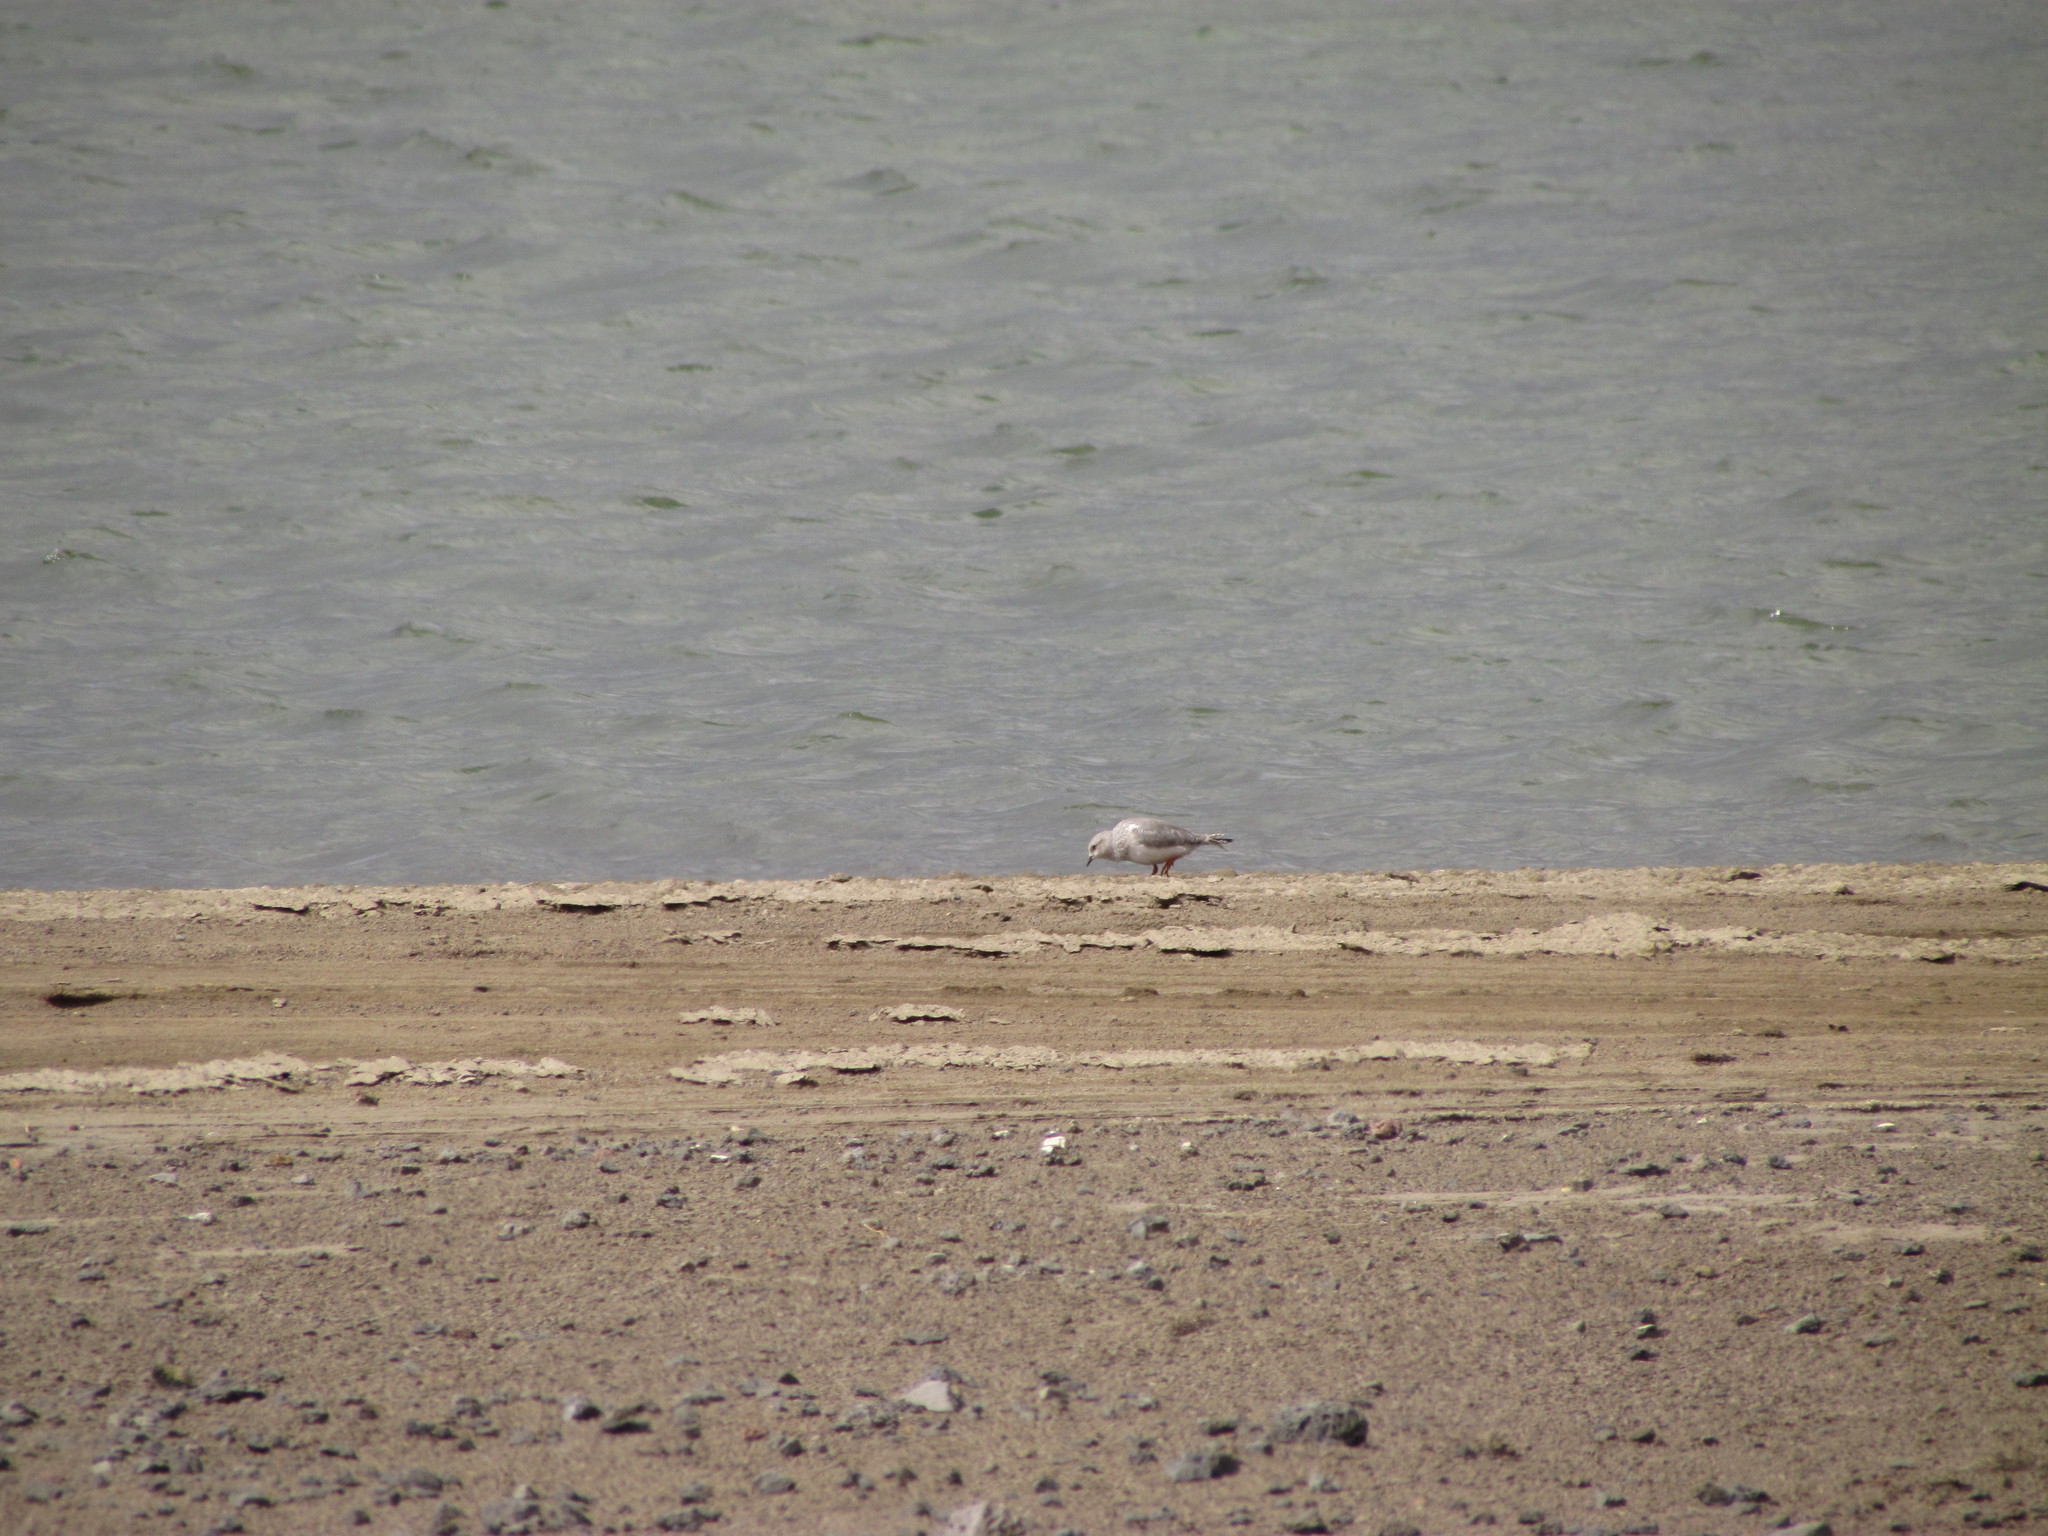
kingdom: Animalia
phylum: Chordata
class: Aves
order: Charadriiformes
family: Pluvianellidae
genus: Pluvianellus
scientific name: Pluvianellus socialis
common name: Magellanic plover
